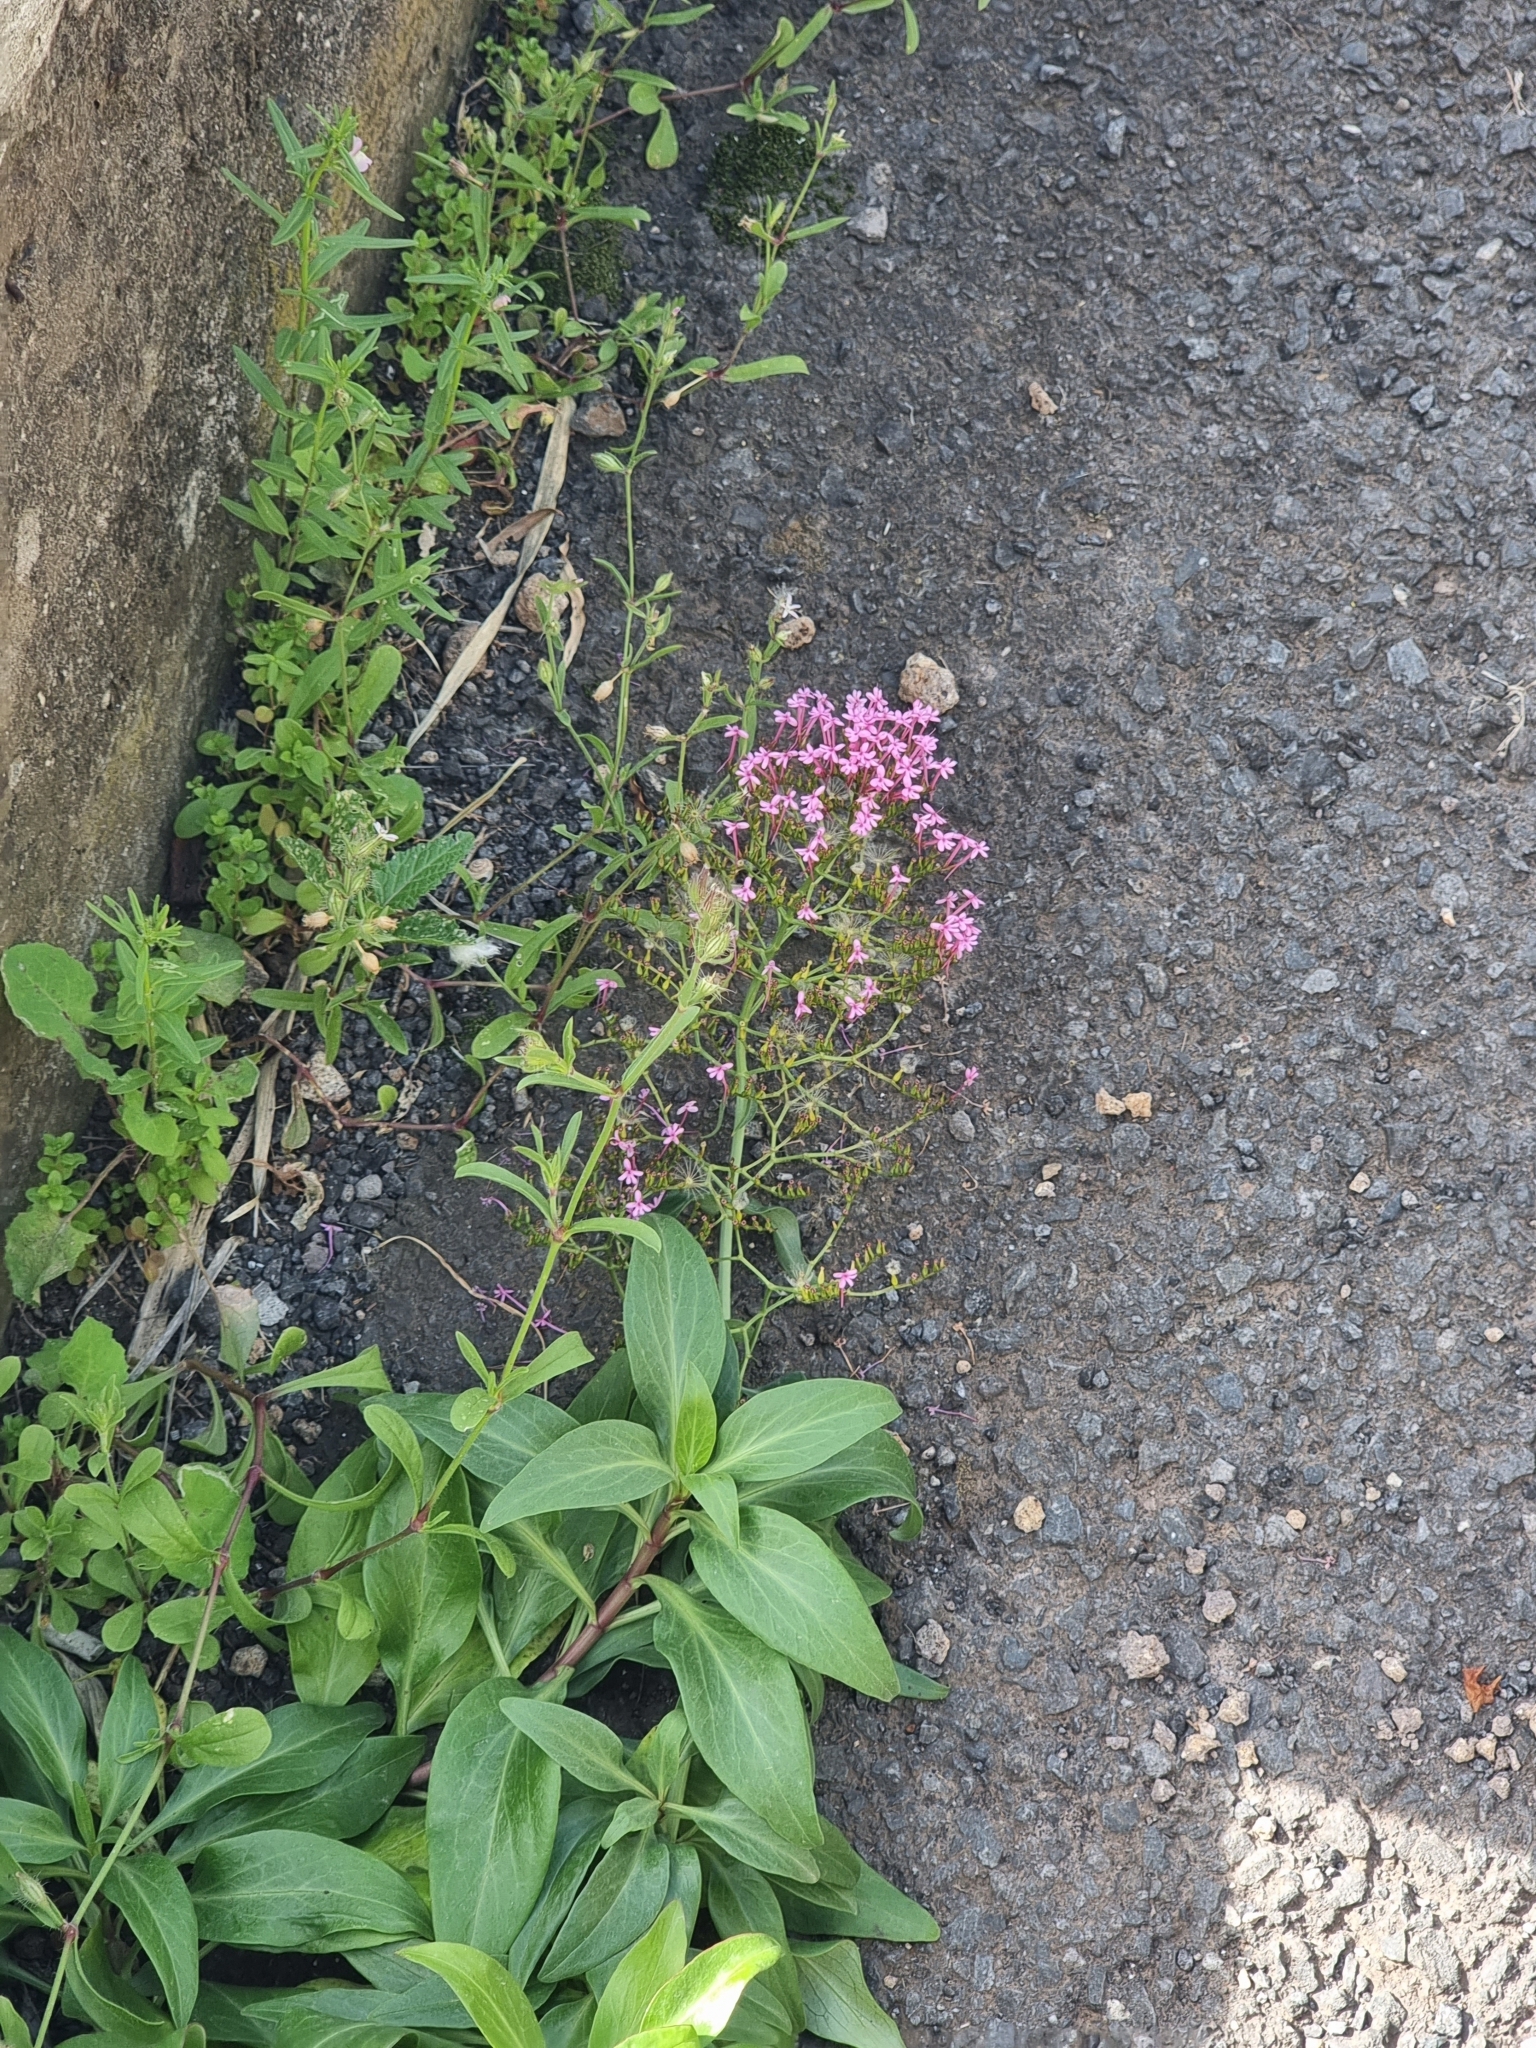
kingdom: Plantae
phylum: Tracheophyta
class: Magnoliopsida
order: Dipsacales
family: Caprifoliaceae
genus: Centranthus
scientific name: Centranthus ruber
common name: Red valerian
